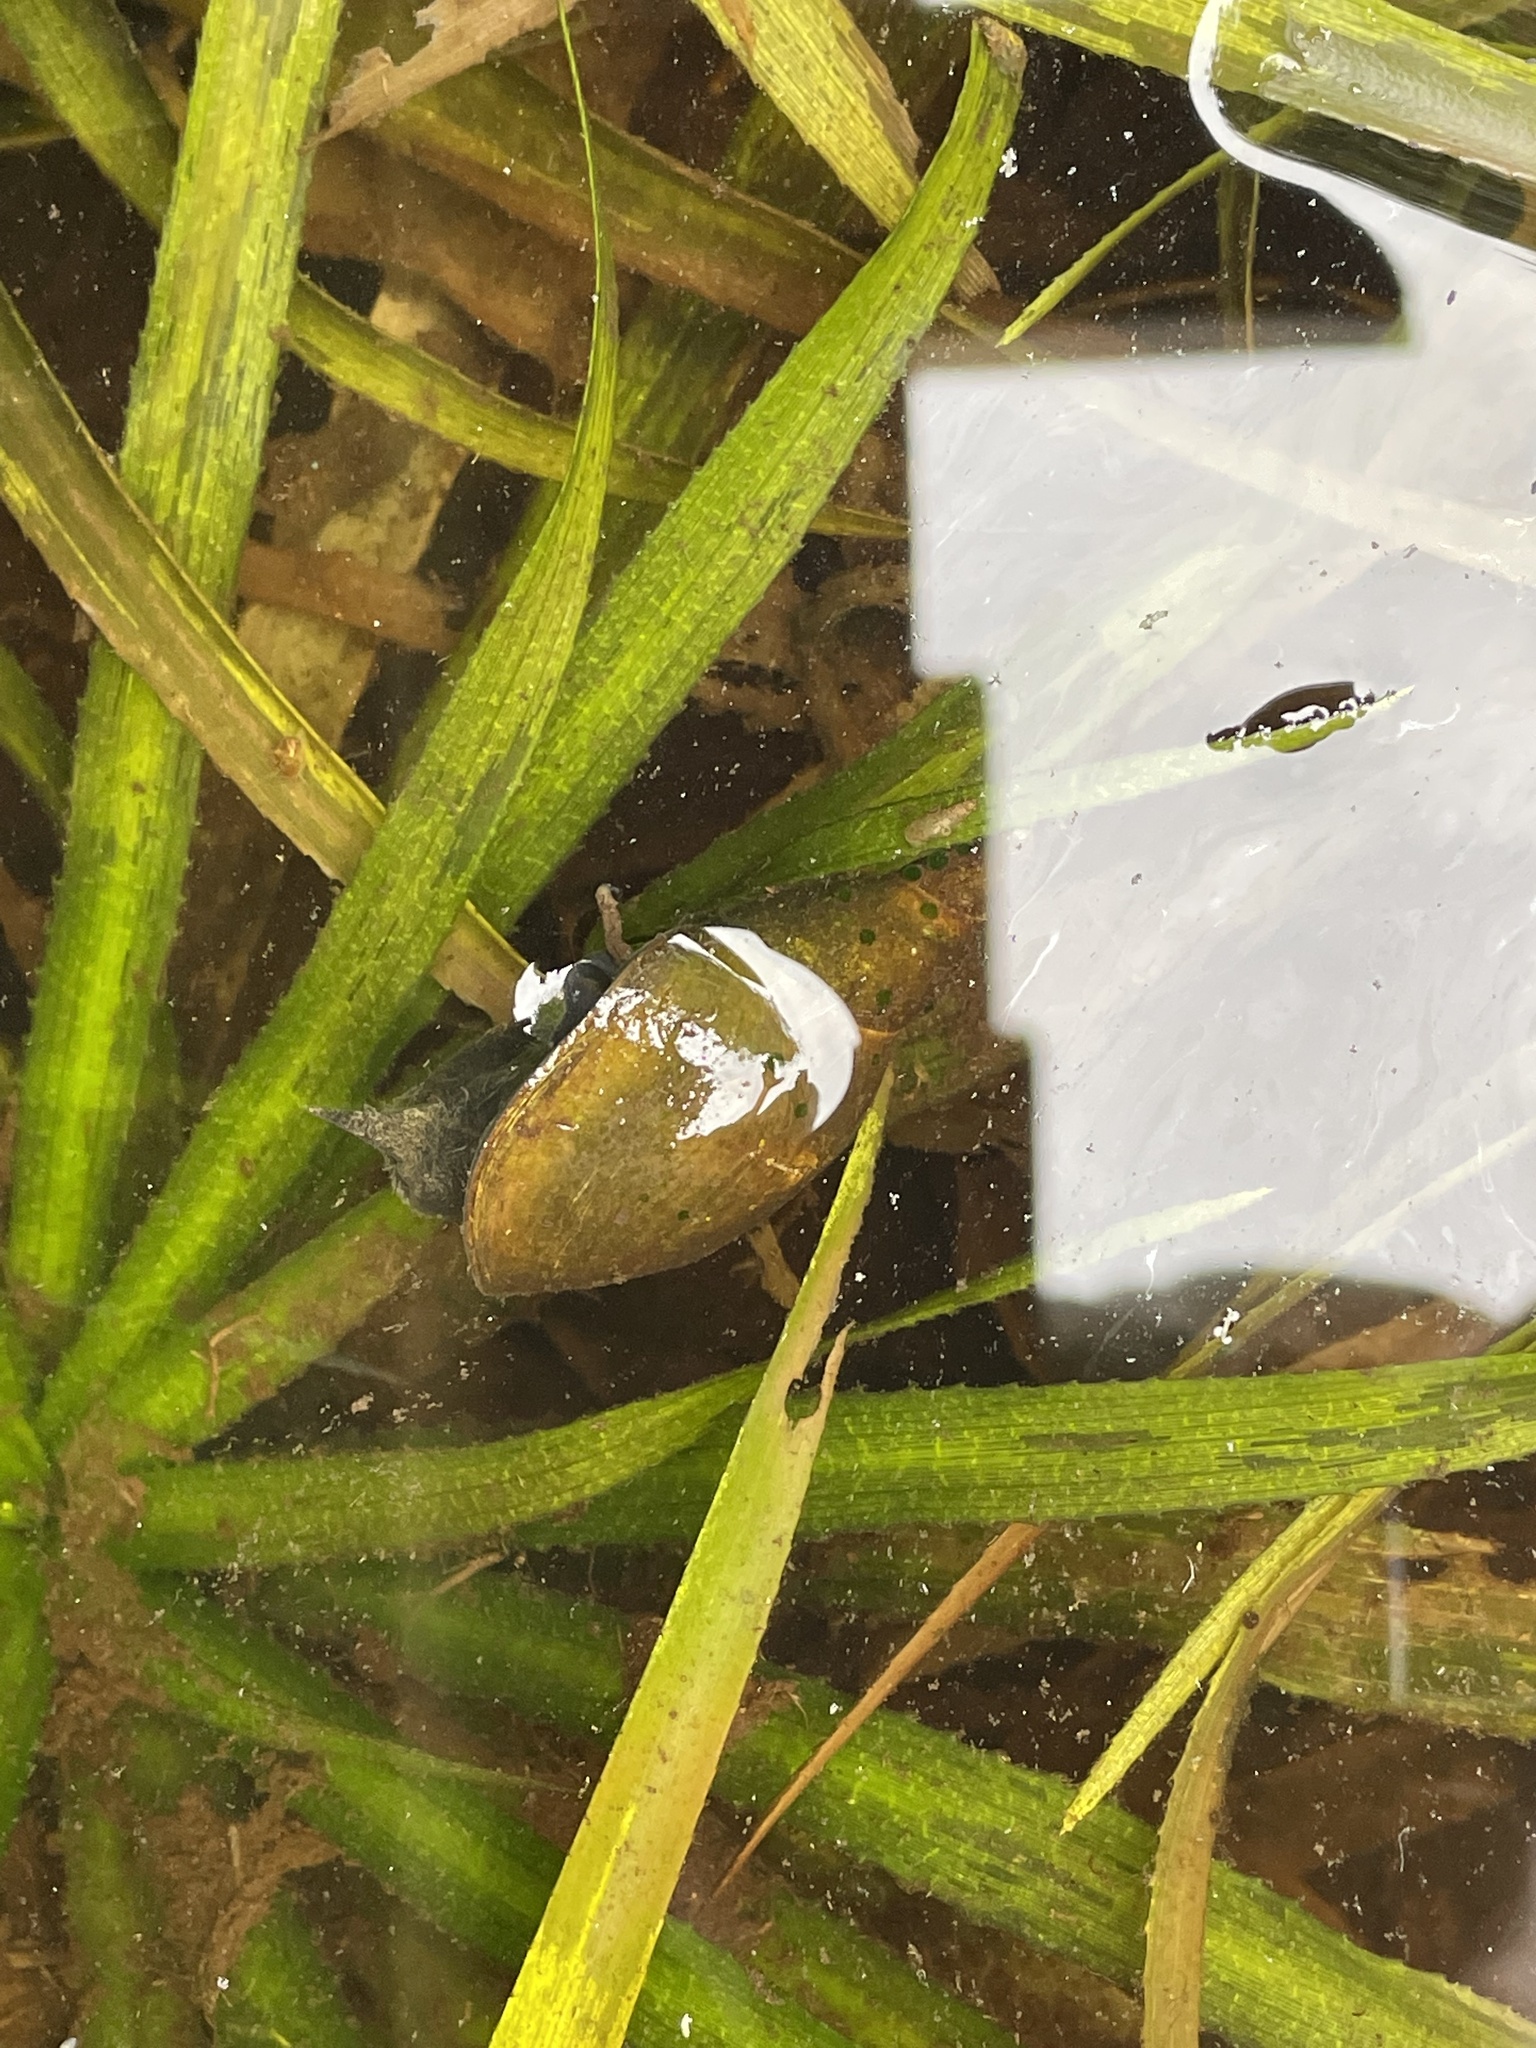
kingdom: Animalia
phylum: Mollusca
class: Gastropoda
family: Lymnaeidae
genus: Lymnaea
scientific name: Lymnaea stagnalis
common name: Great pond snail
